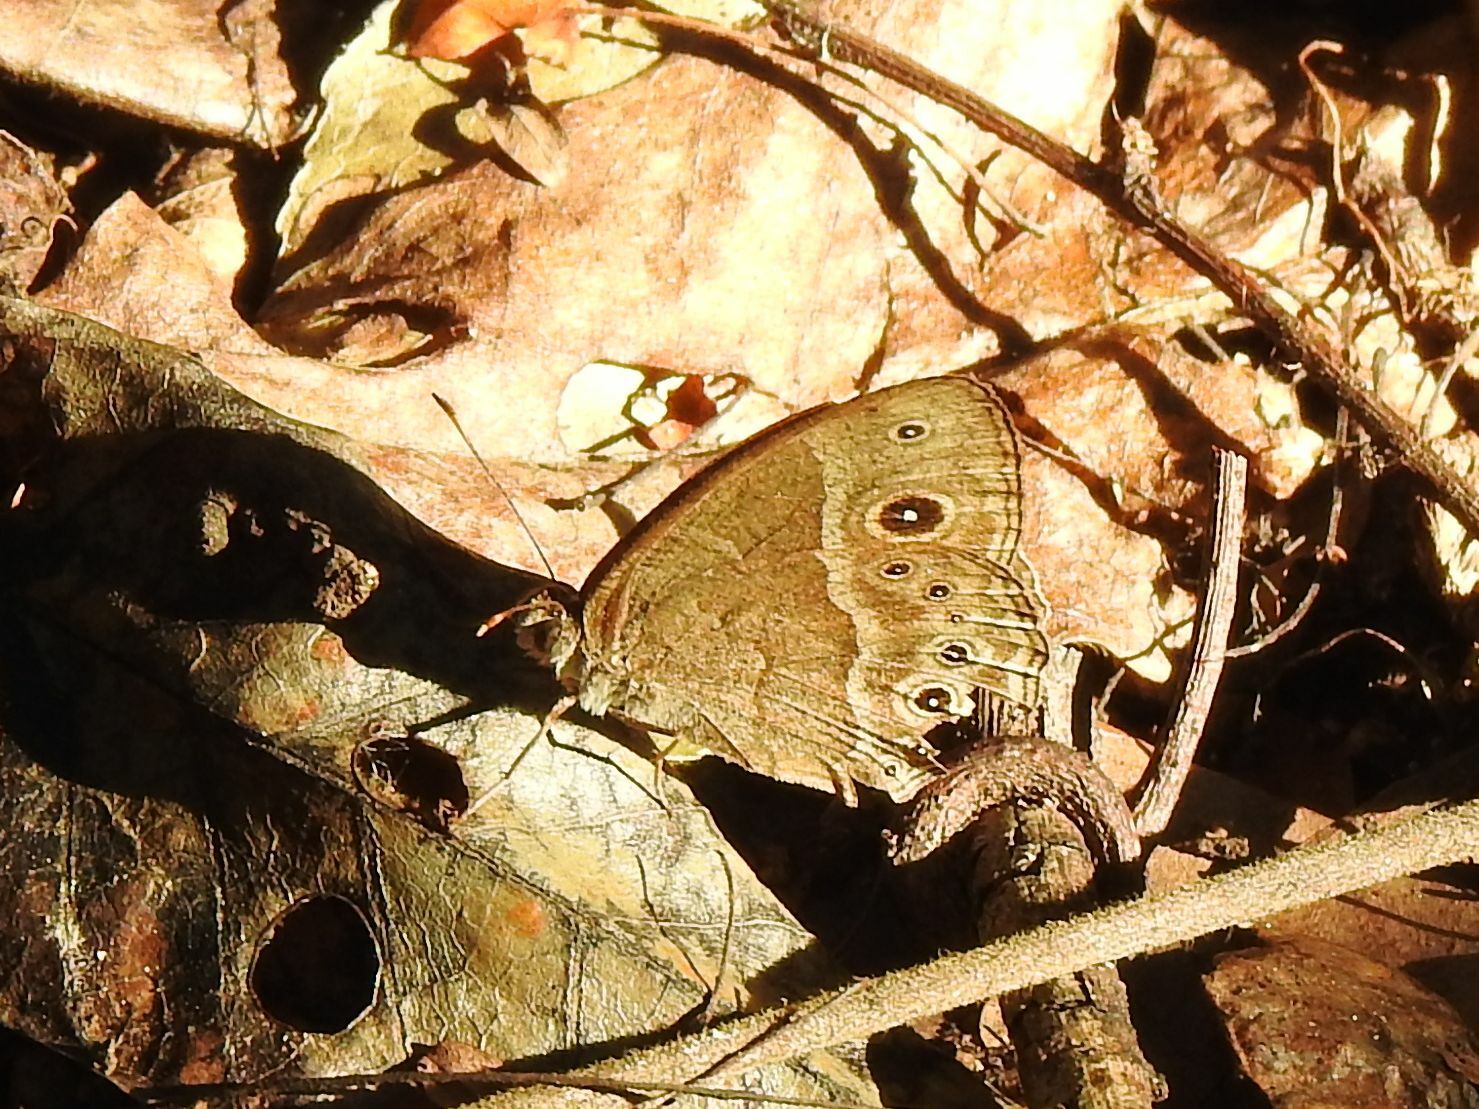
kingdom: Animalia
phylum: Arthropoda
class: Insecta
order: Lepidoptera
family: Nymphalidae
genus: Mycalesis
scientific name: Mycalesis anynana
